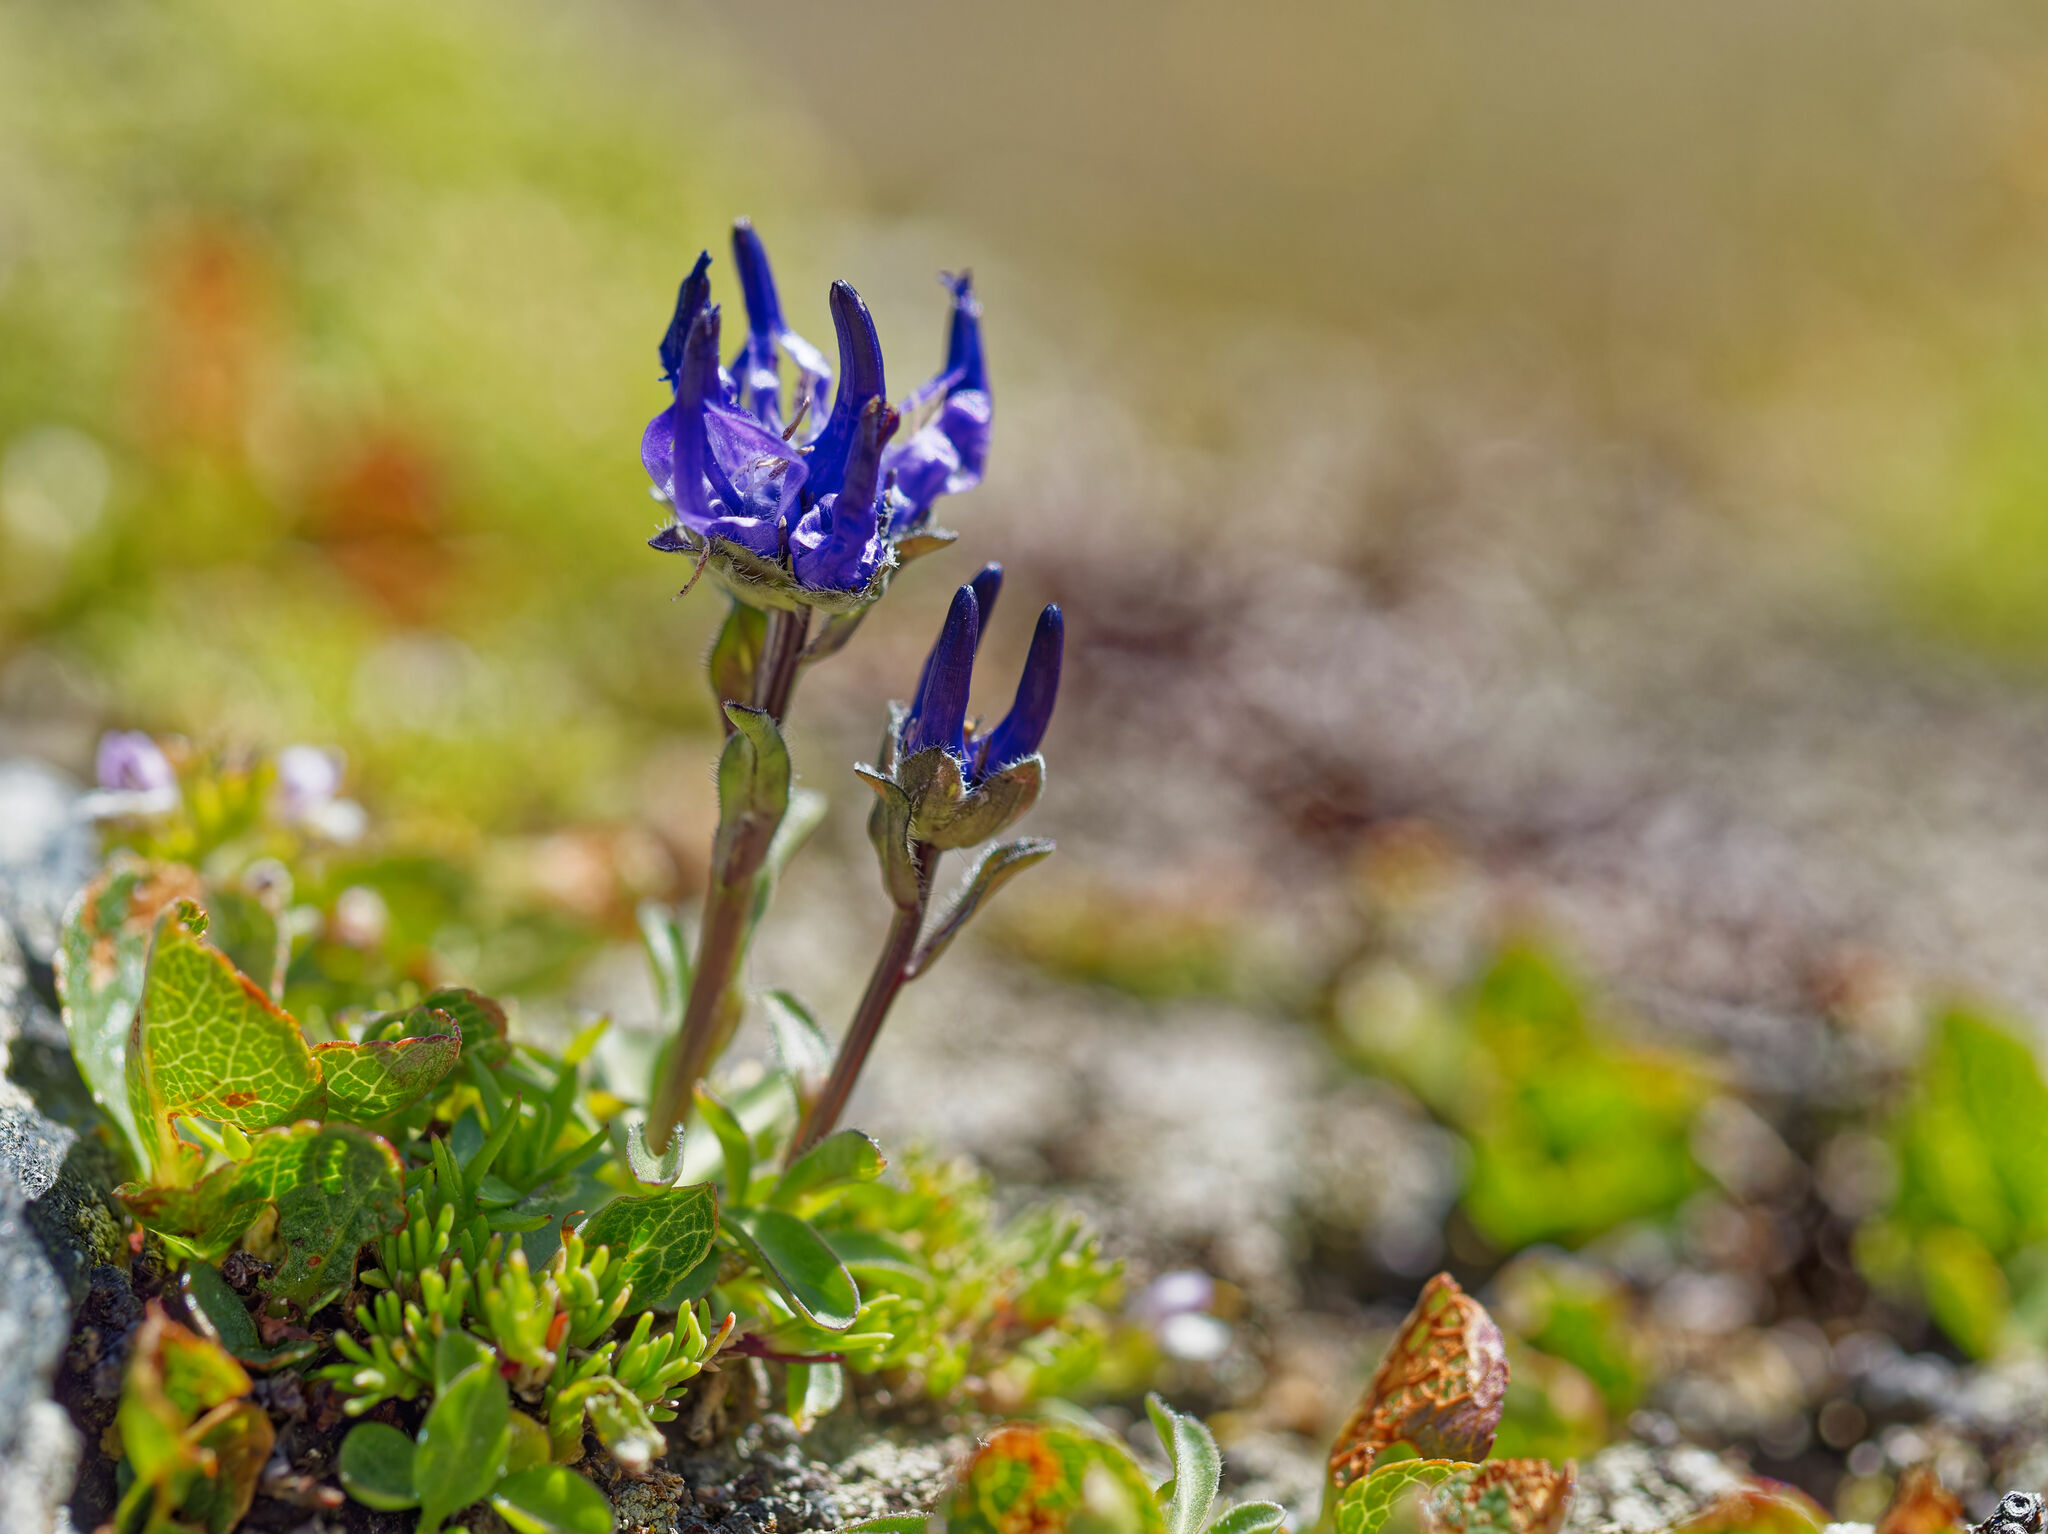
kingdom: Plantae
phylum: Tracheophyta
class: Magnoliopsida
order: Asterales
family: Campanulaceae
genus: Phyteuma
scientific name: Phyteuma globulariifolium
